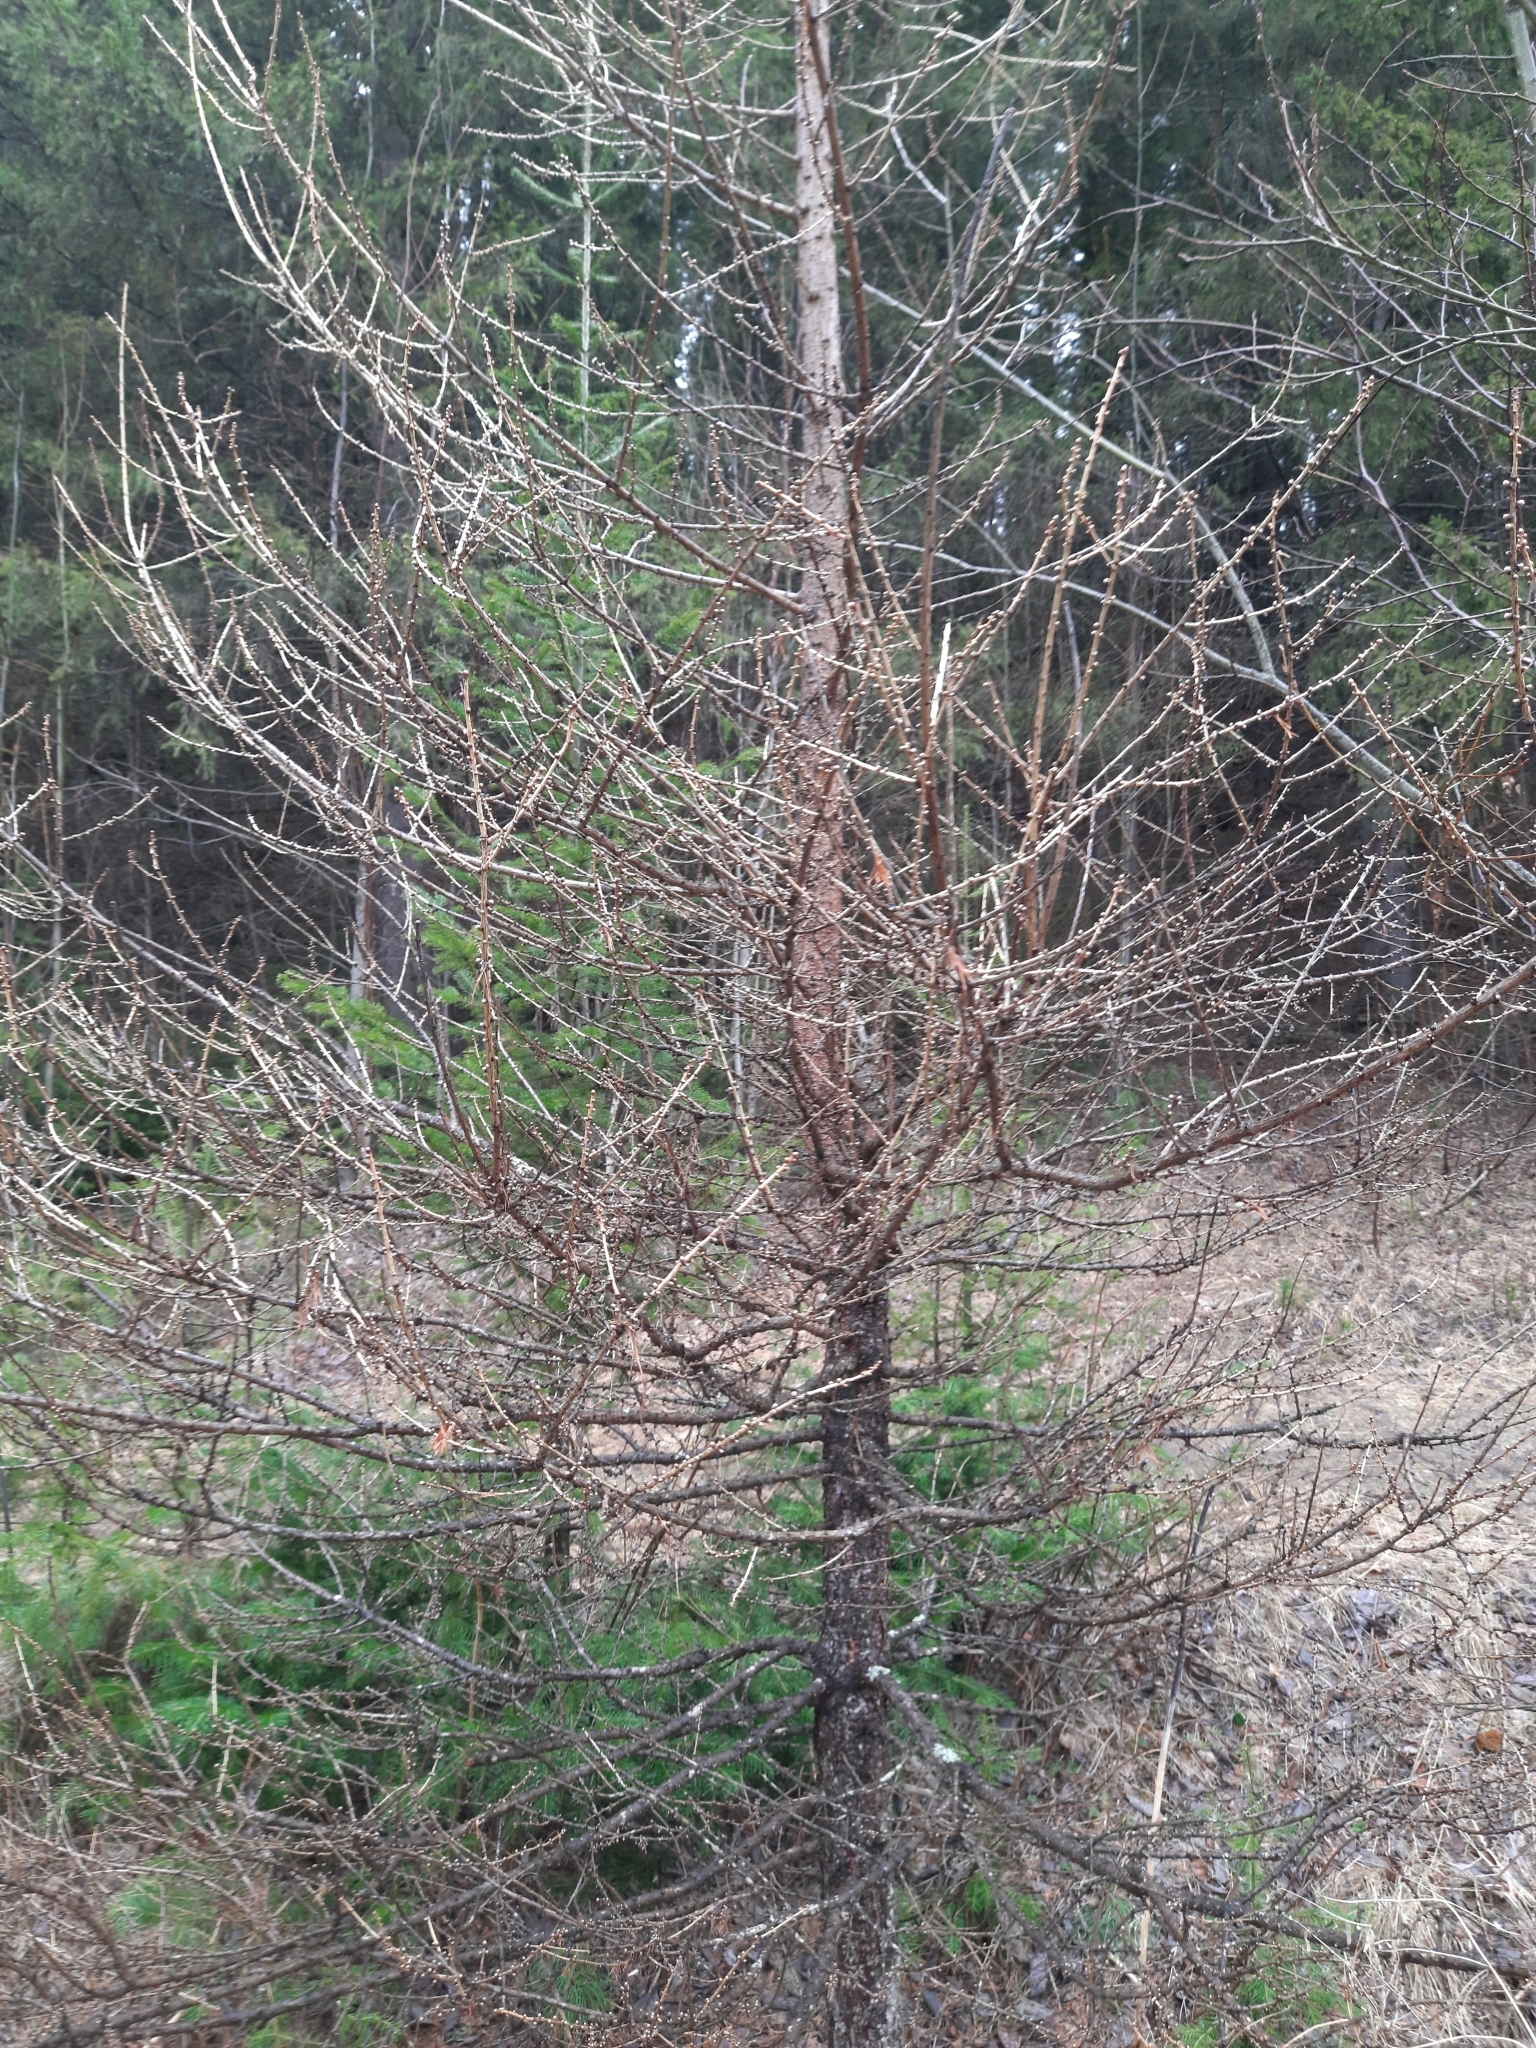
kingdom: Plantae
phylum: Tracheophyta
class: Pinopsida
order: Pinales
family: Pinaceae
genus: Larix
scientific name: Larix sibirica
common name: Siberian larch
